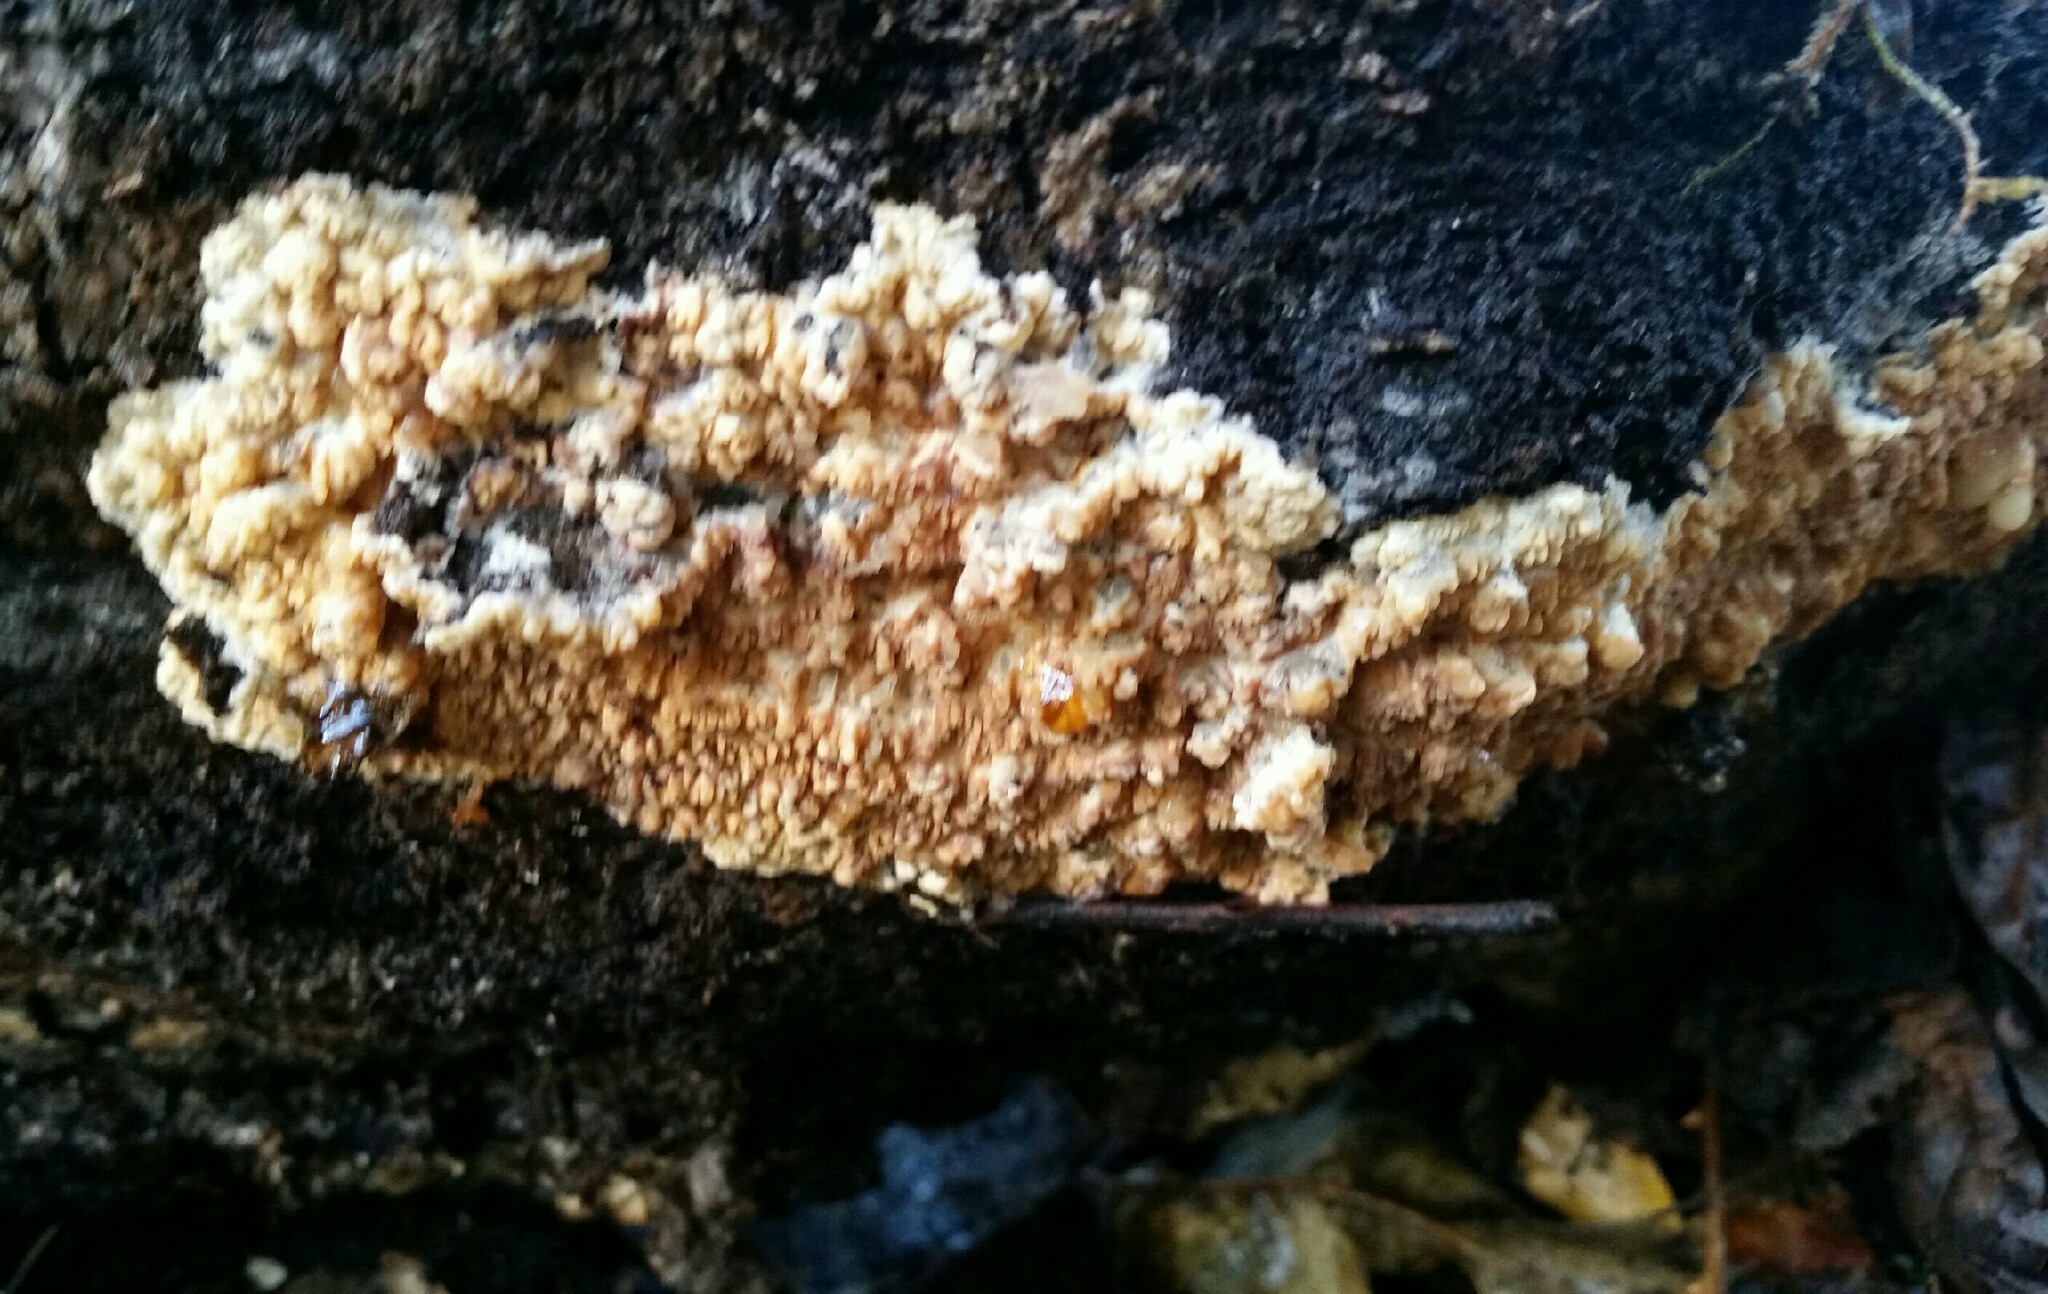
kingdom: Fungi
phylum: Basidiomycota
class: Agaricomycetes
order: Polyporales
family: Meruliaceae
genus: Phlebia
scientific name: Phlebia radiata
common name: Wrinkled crust
